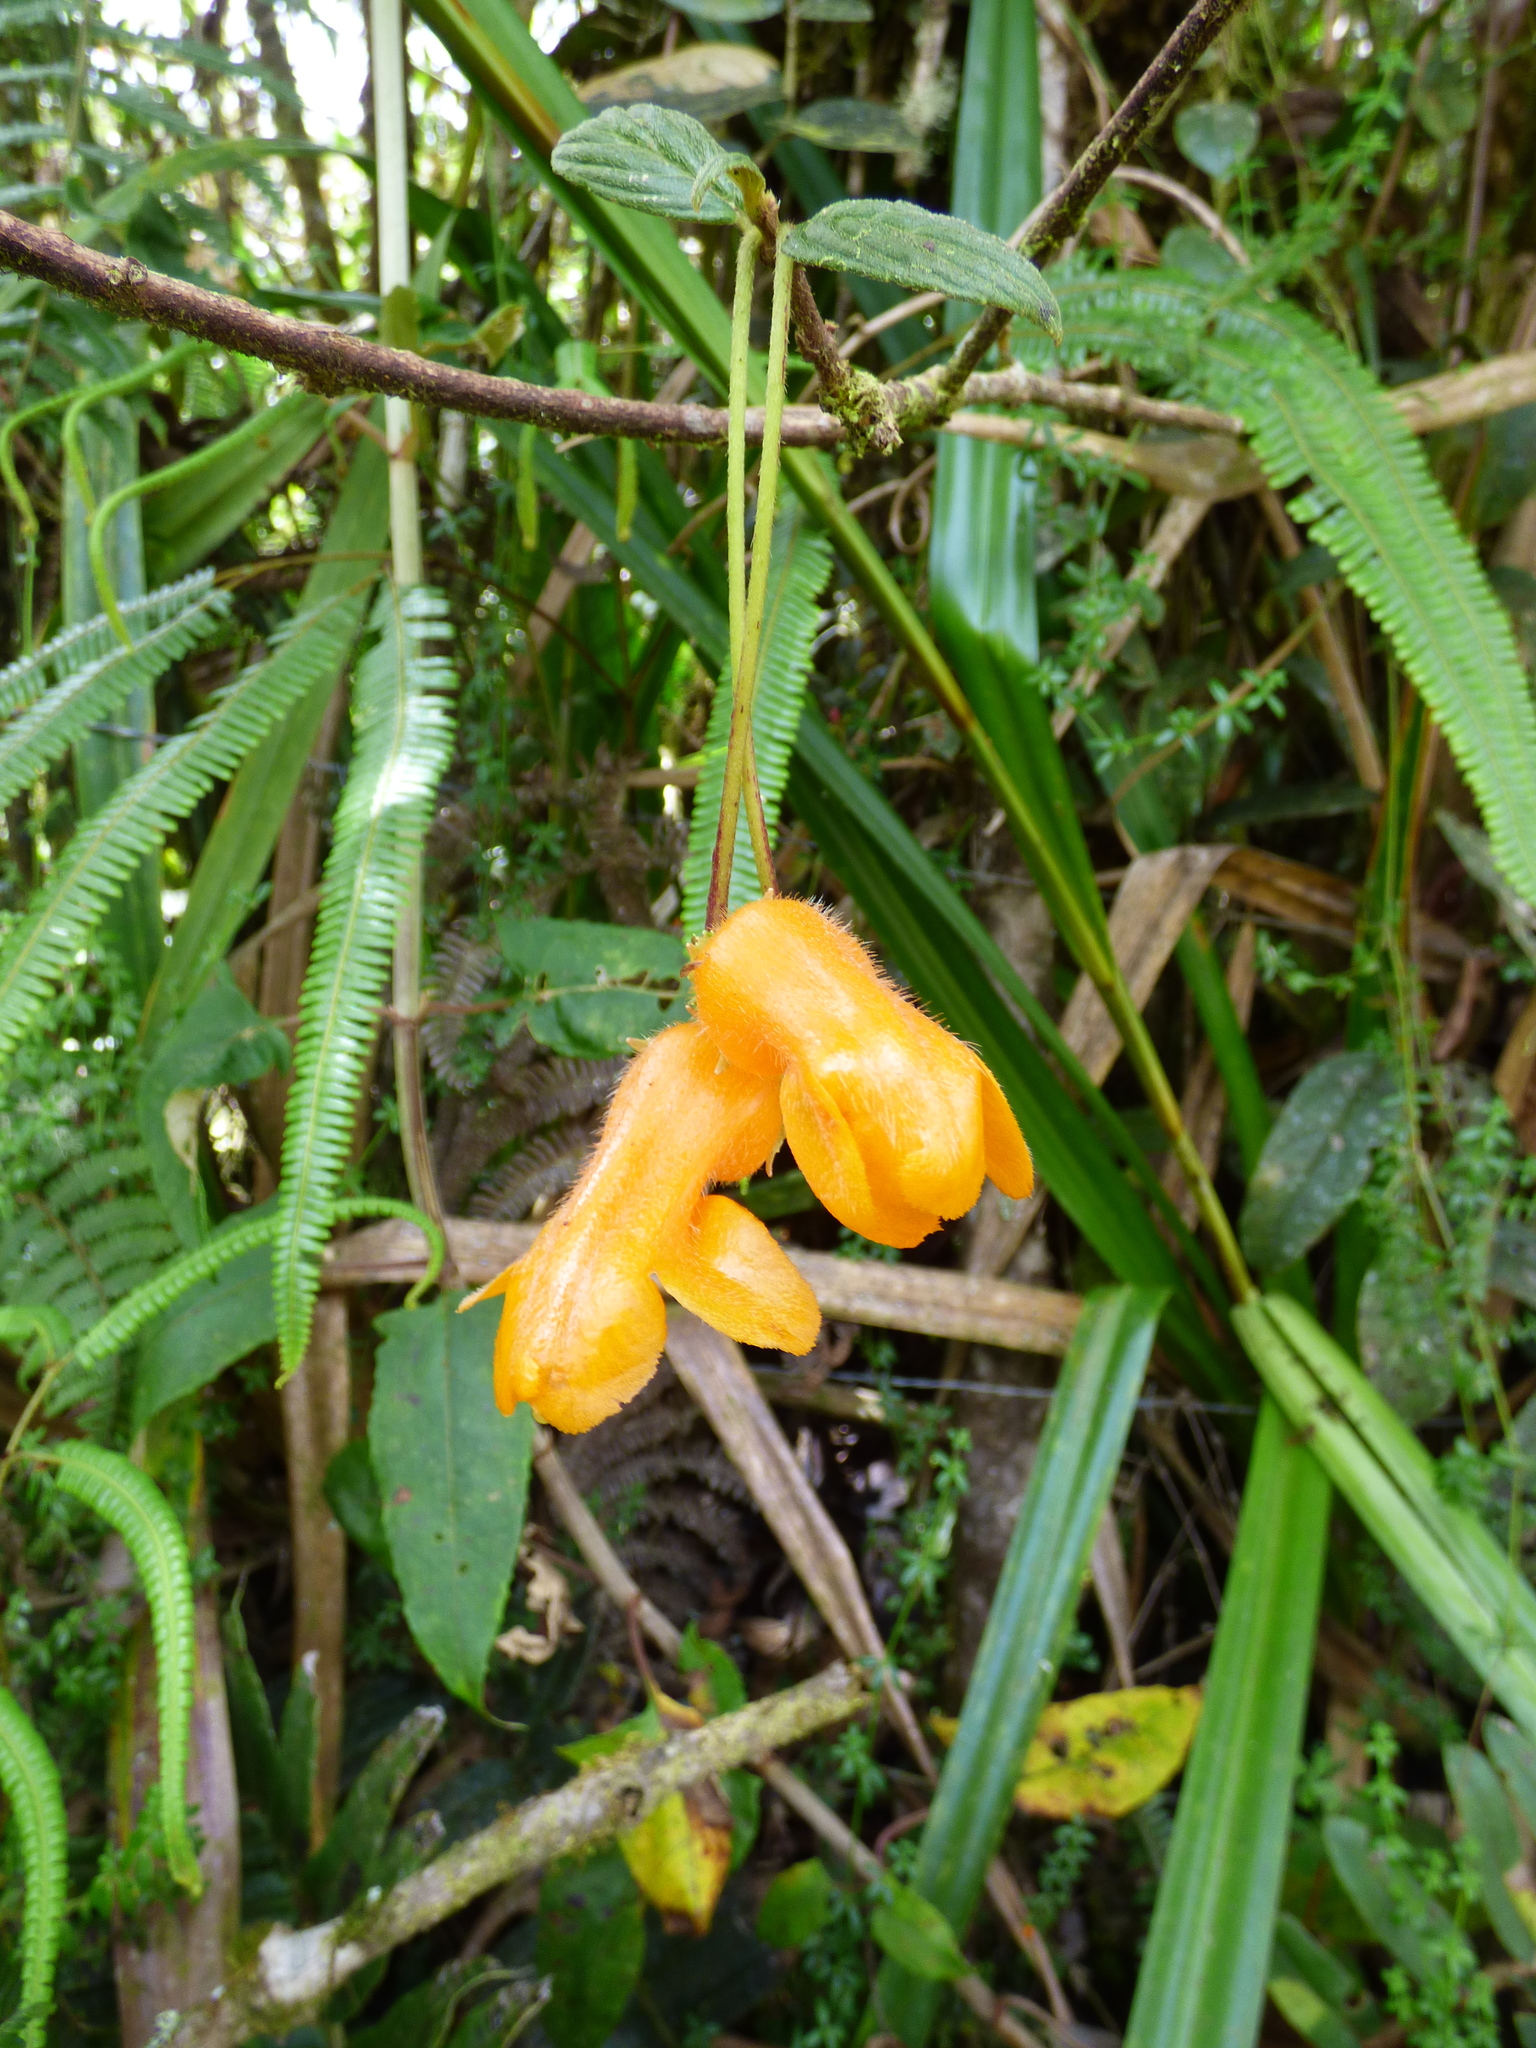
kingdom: Plantae
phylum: Tracheophyta
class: Magnoliopsida
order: Lamiales
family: Gesneriaceae
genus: Columnea
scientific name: Columnea strigosa
